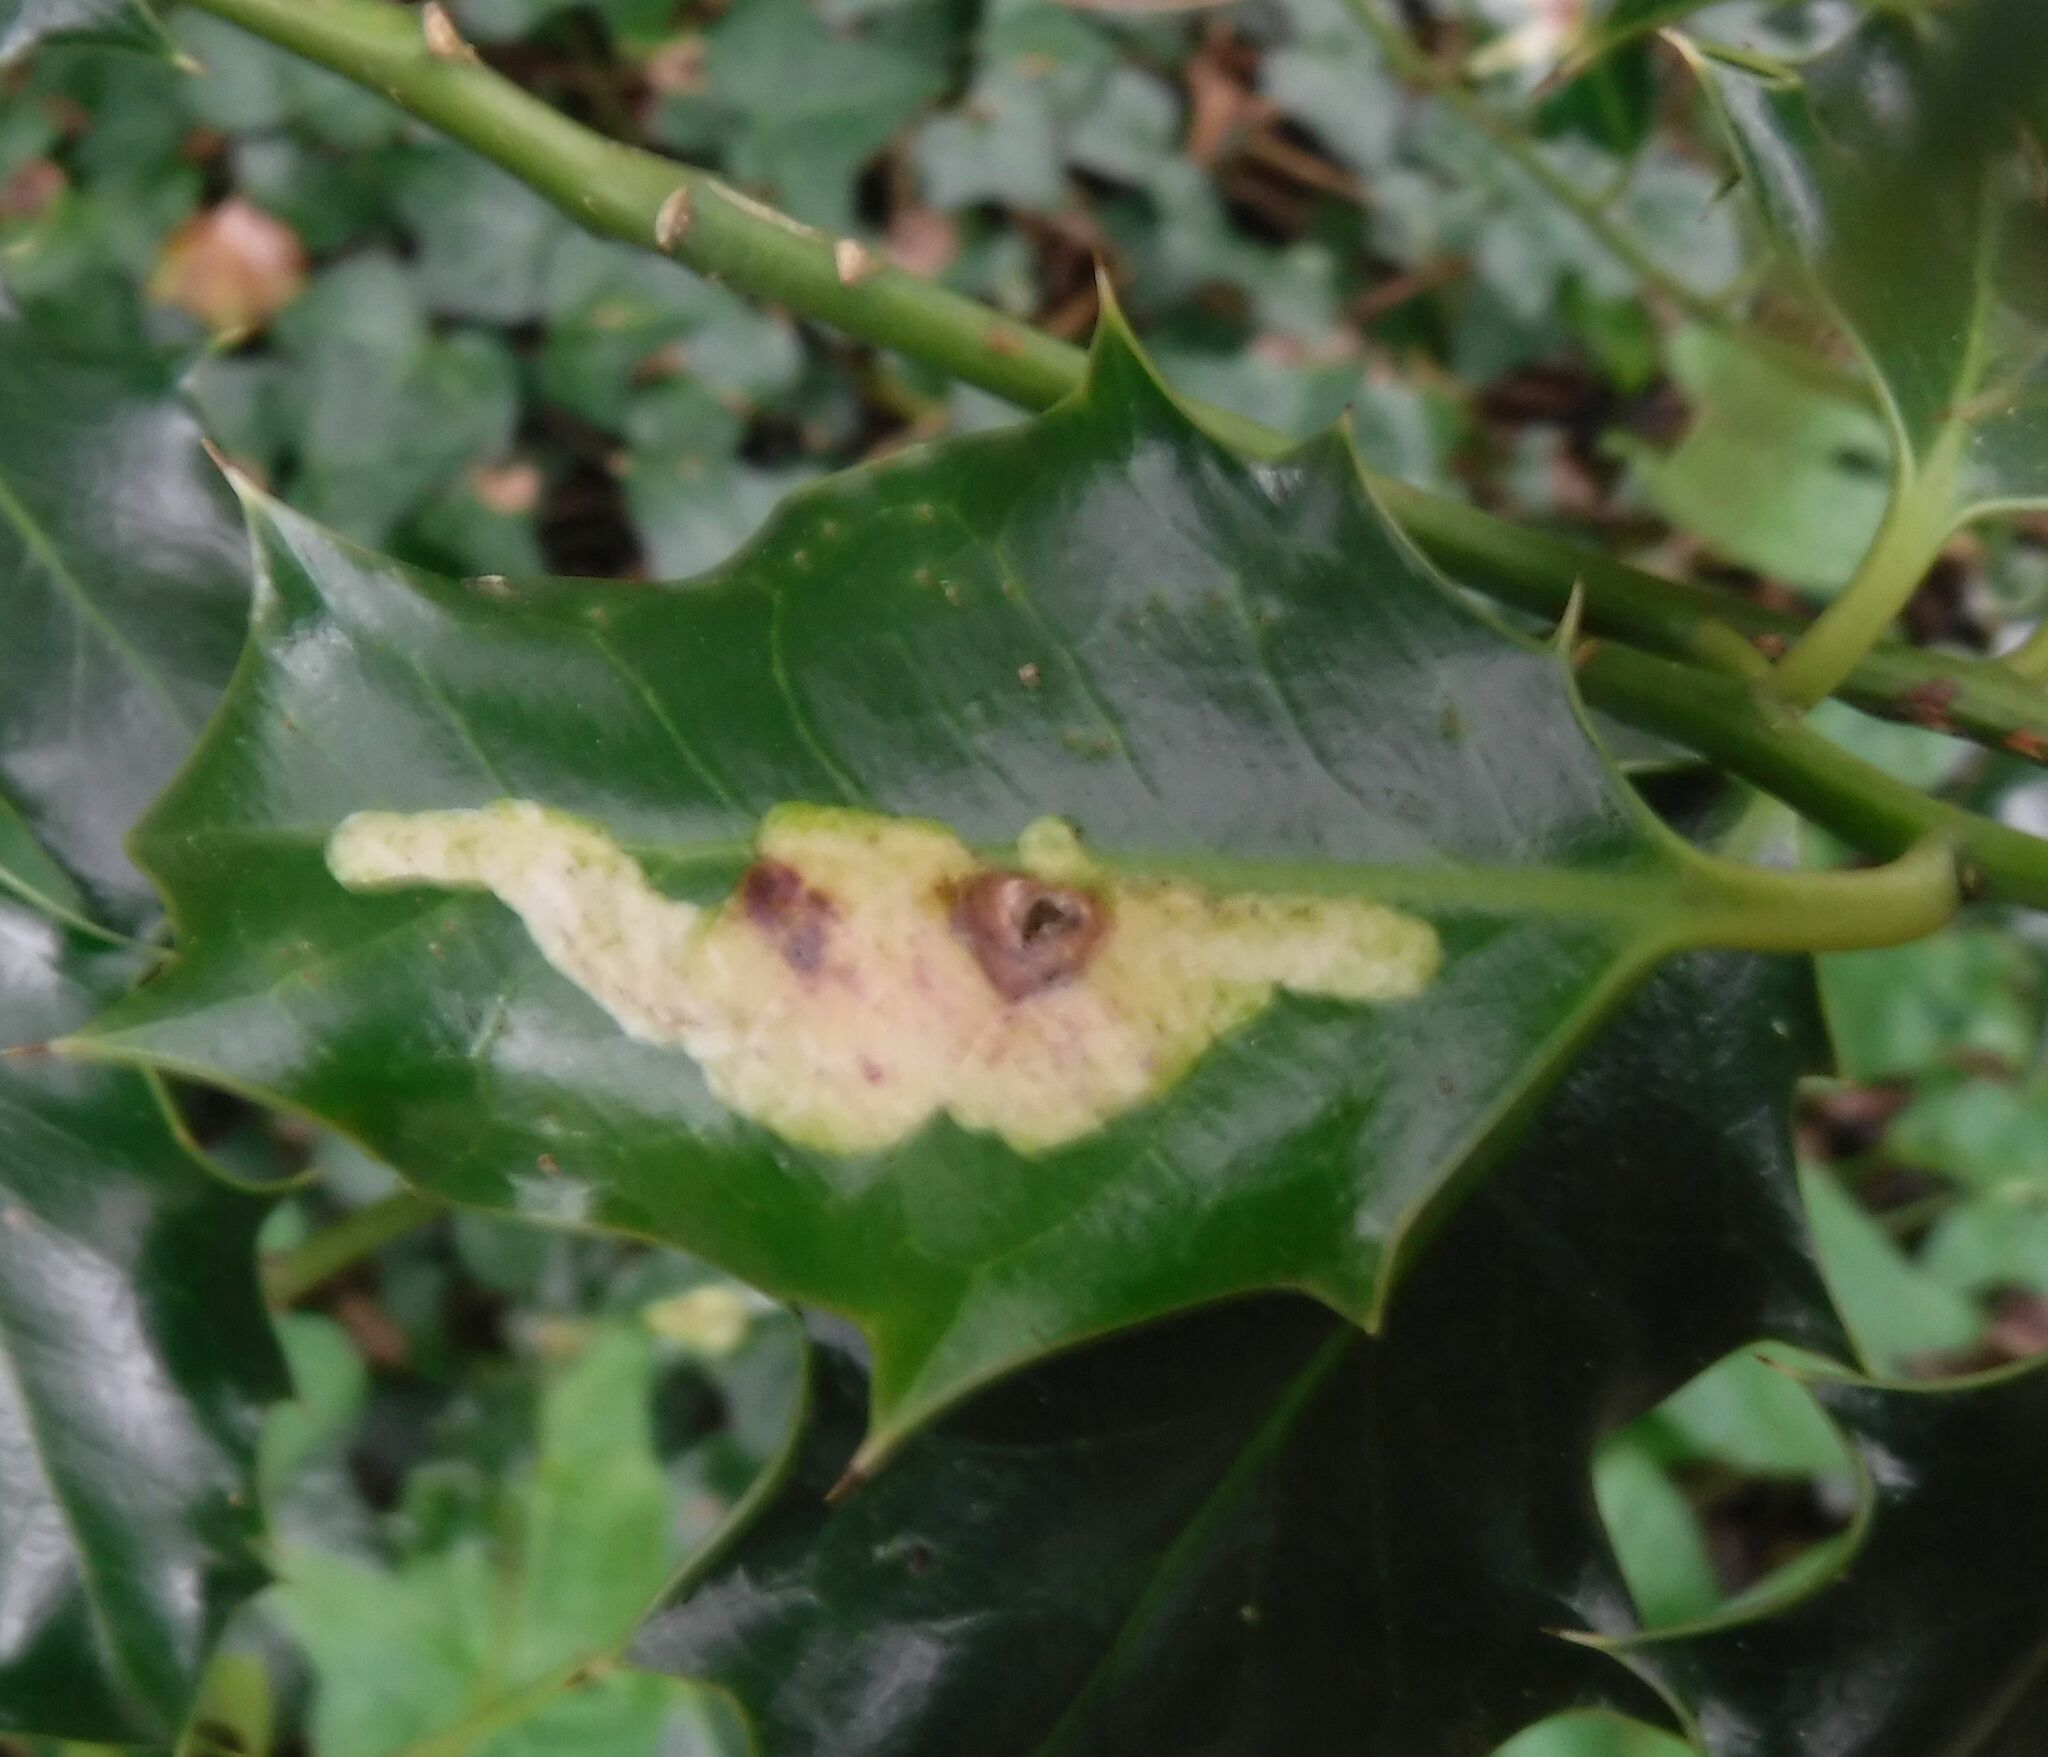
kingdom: Animalia
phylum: Arthropoda
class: Insecta
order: Diptera
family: Agromyzidae
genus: Phytomyza
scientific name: Phytomyza ilicis
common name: Holly leafminer
